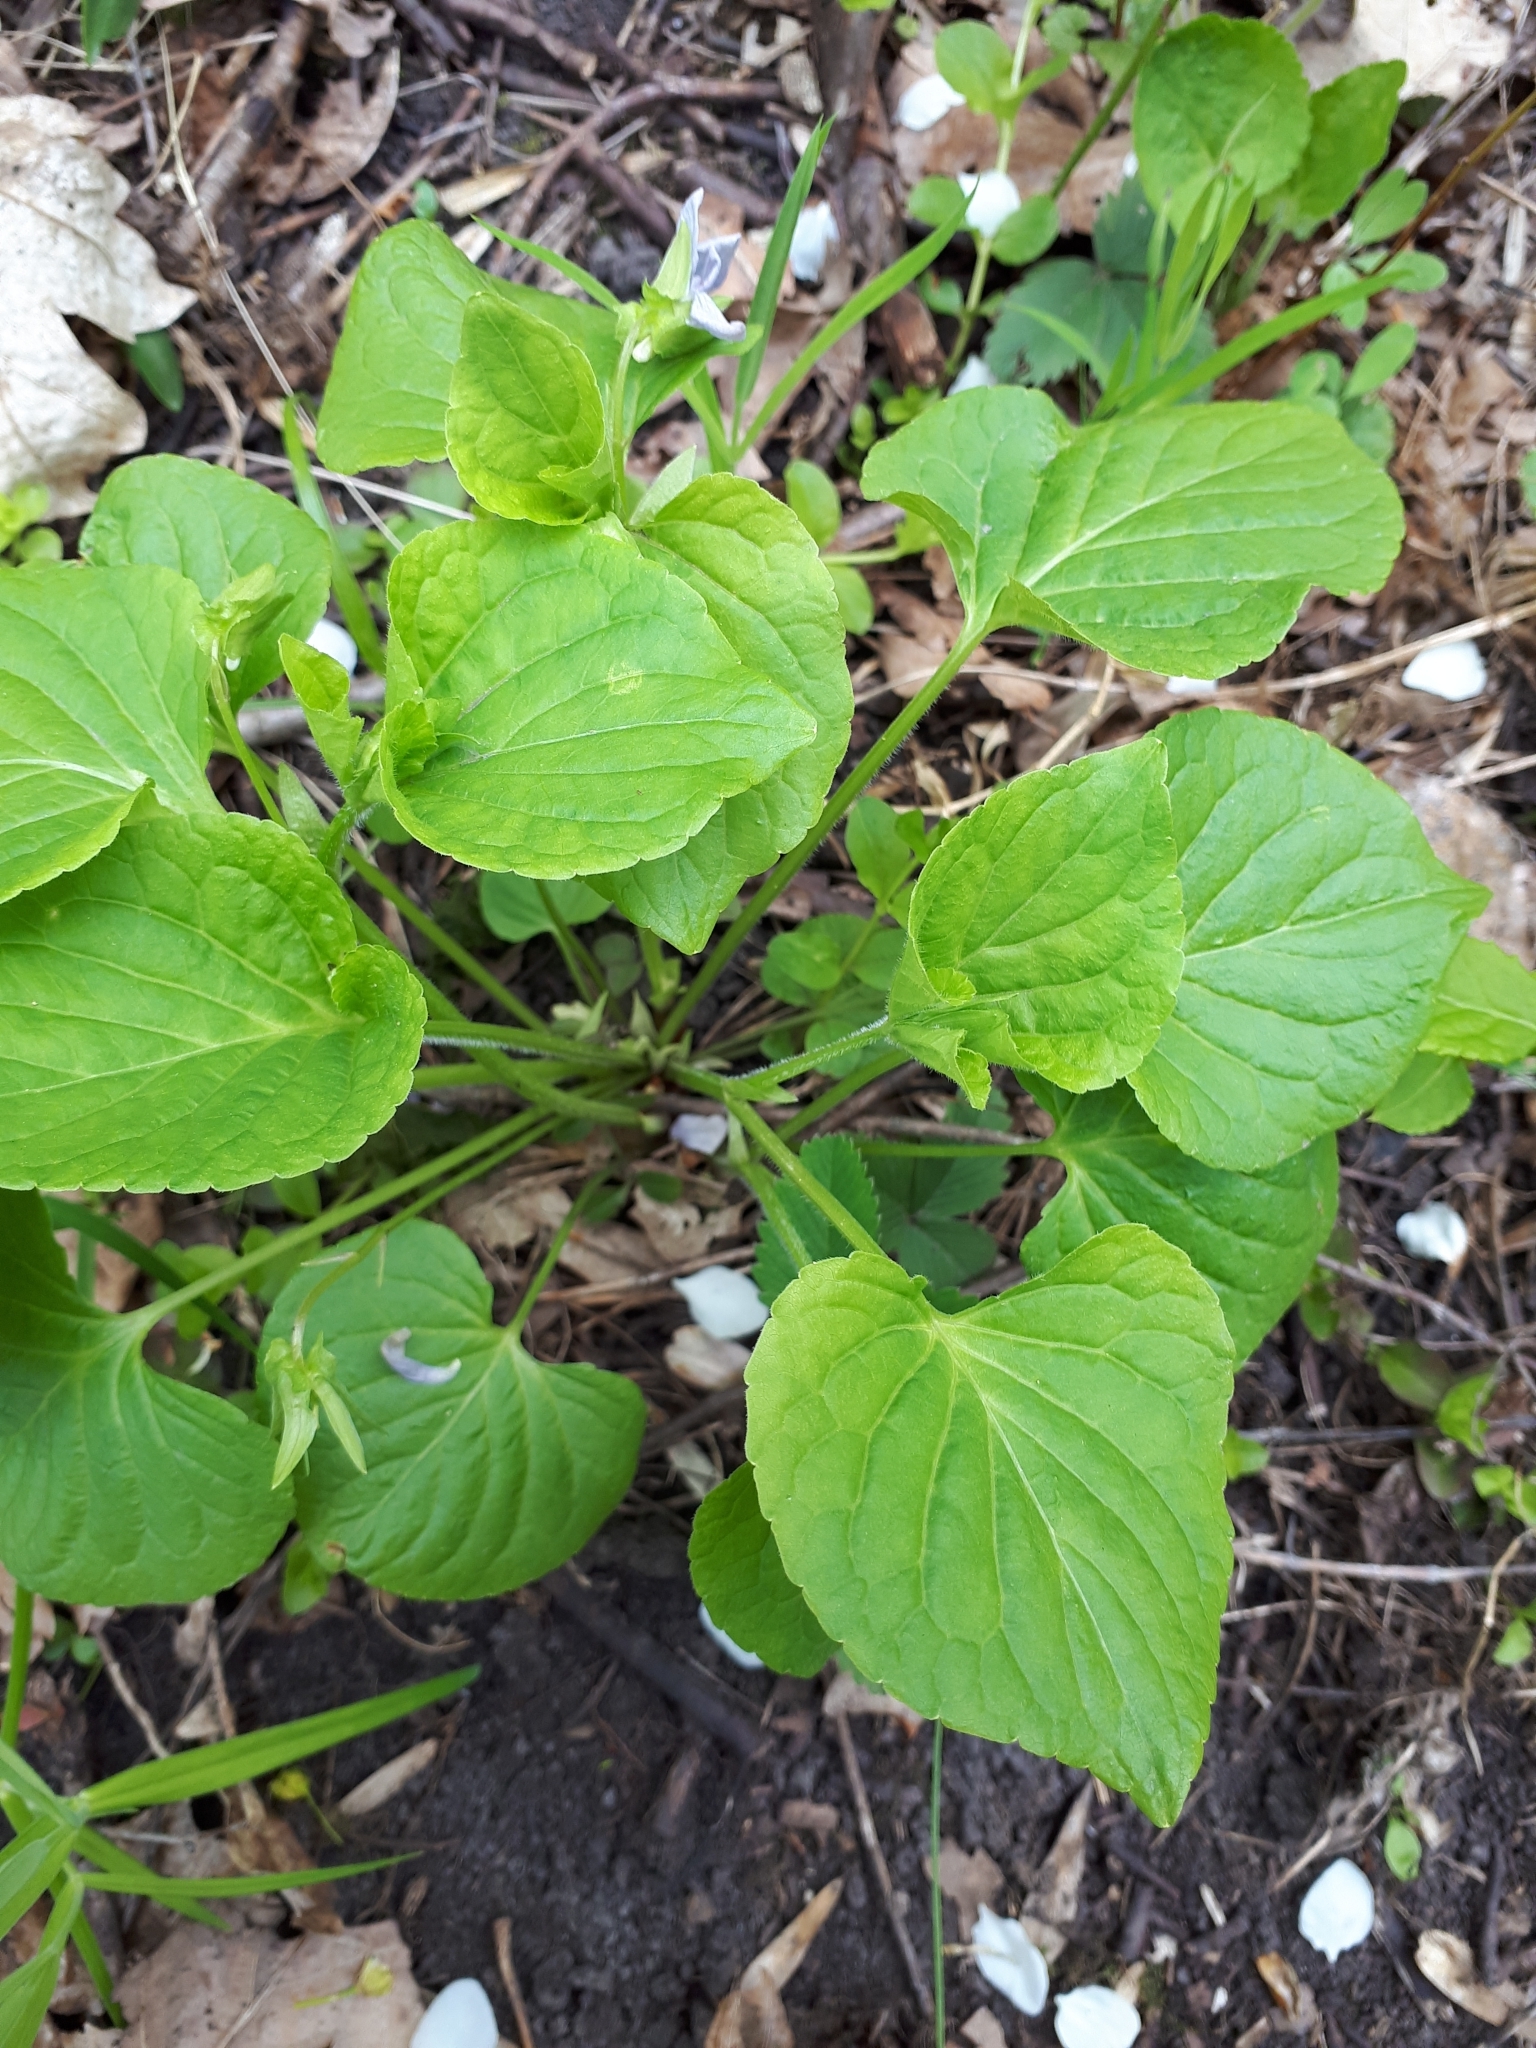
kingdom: Plantae
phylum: Tracheophyta
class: Magnoliopsida
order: Malpighiales
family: Violaceae
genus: Viola
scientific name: Viola mirabilis
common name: Wonder violet
